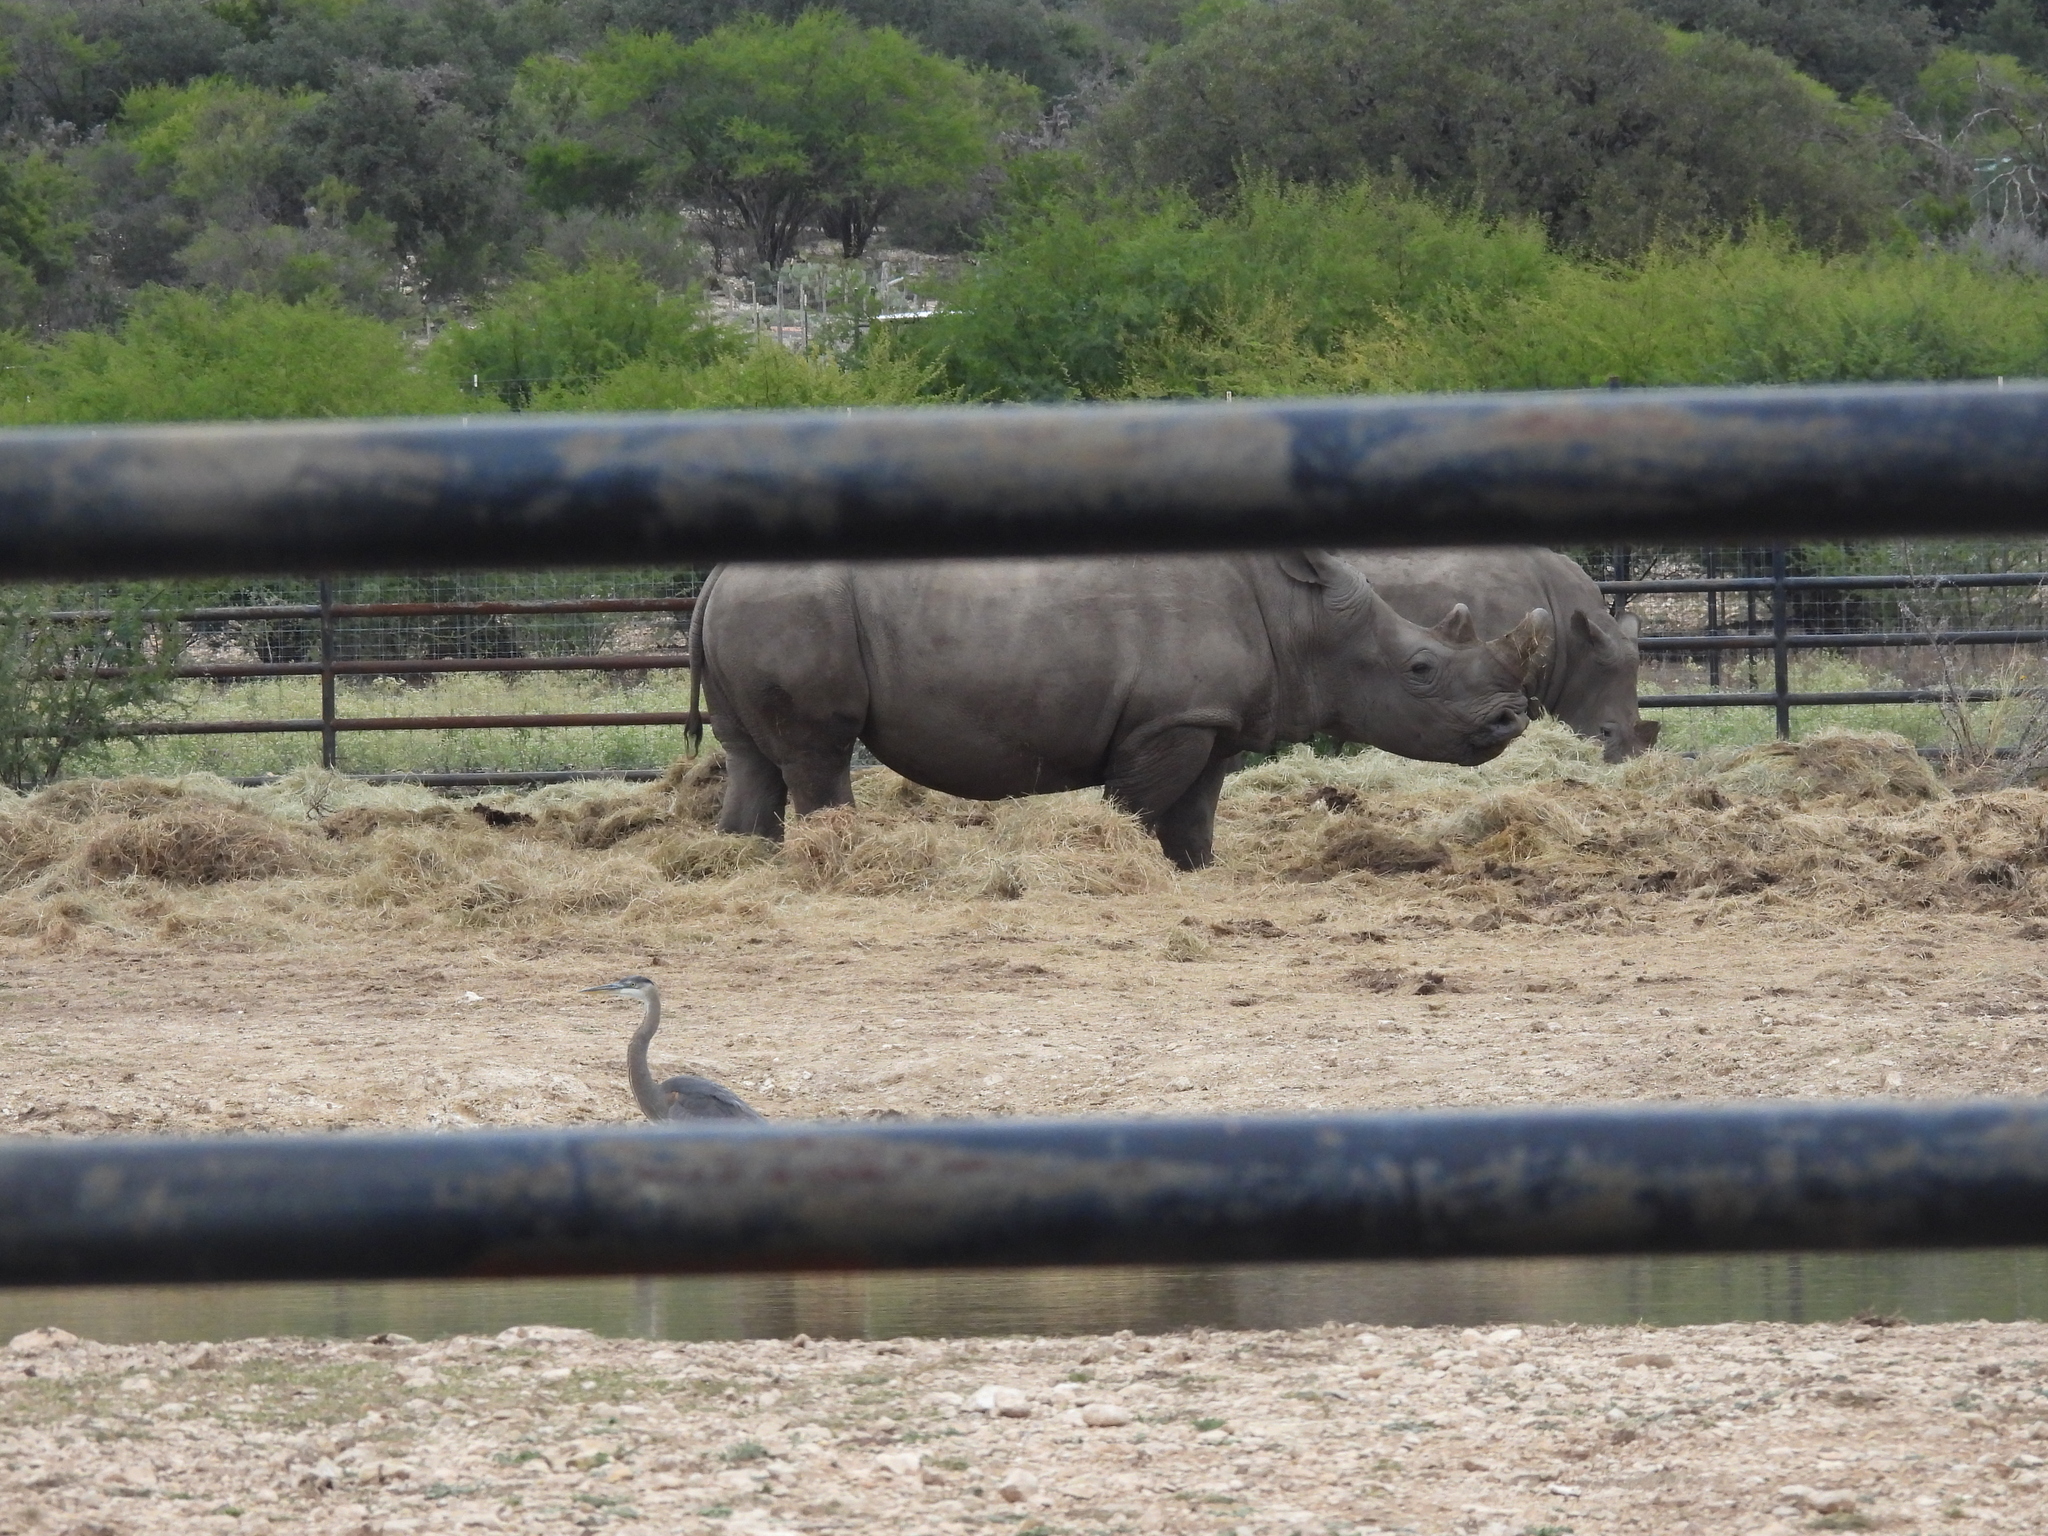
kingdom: Animalia
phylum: Chordata
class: Aves
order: Pelecaniformes
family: Ardeidae
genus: Ardea
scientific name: Ardea herodias
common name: Great blue heron
